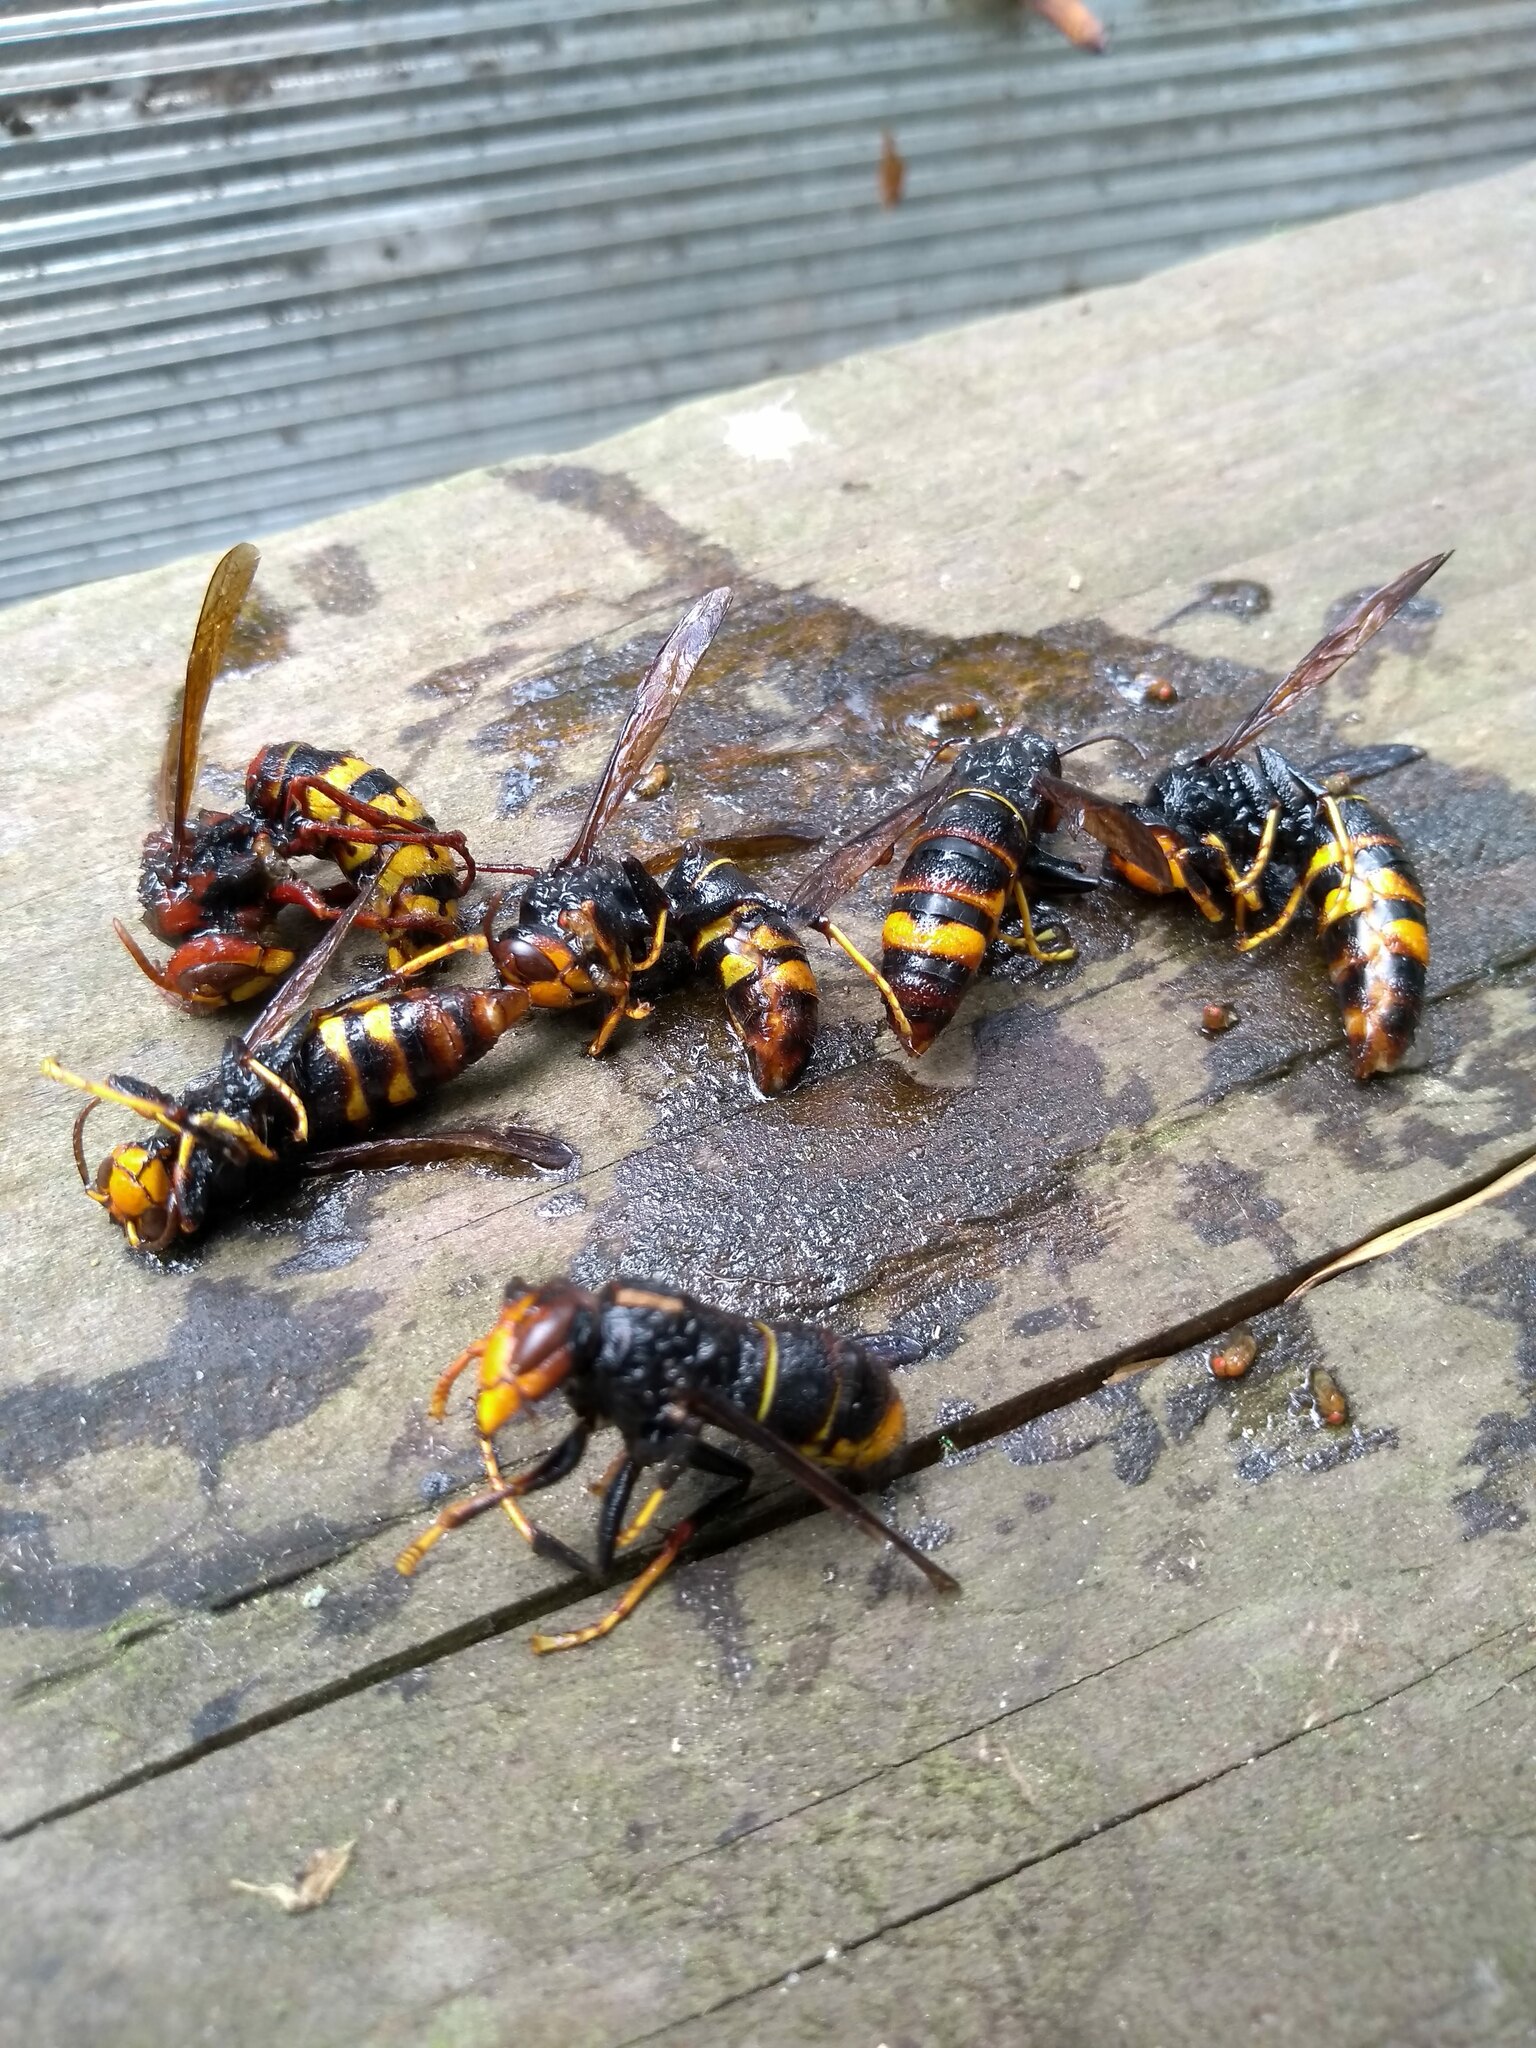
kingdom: Animalia
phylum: Arthropoda
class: Insecta
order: Hymenoptera
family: Vespidae
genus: Vespa
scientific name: Vespa velutina
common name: Asian hornet
